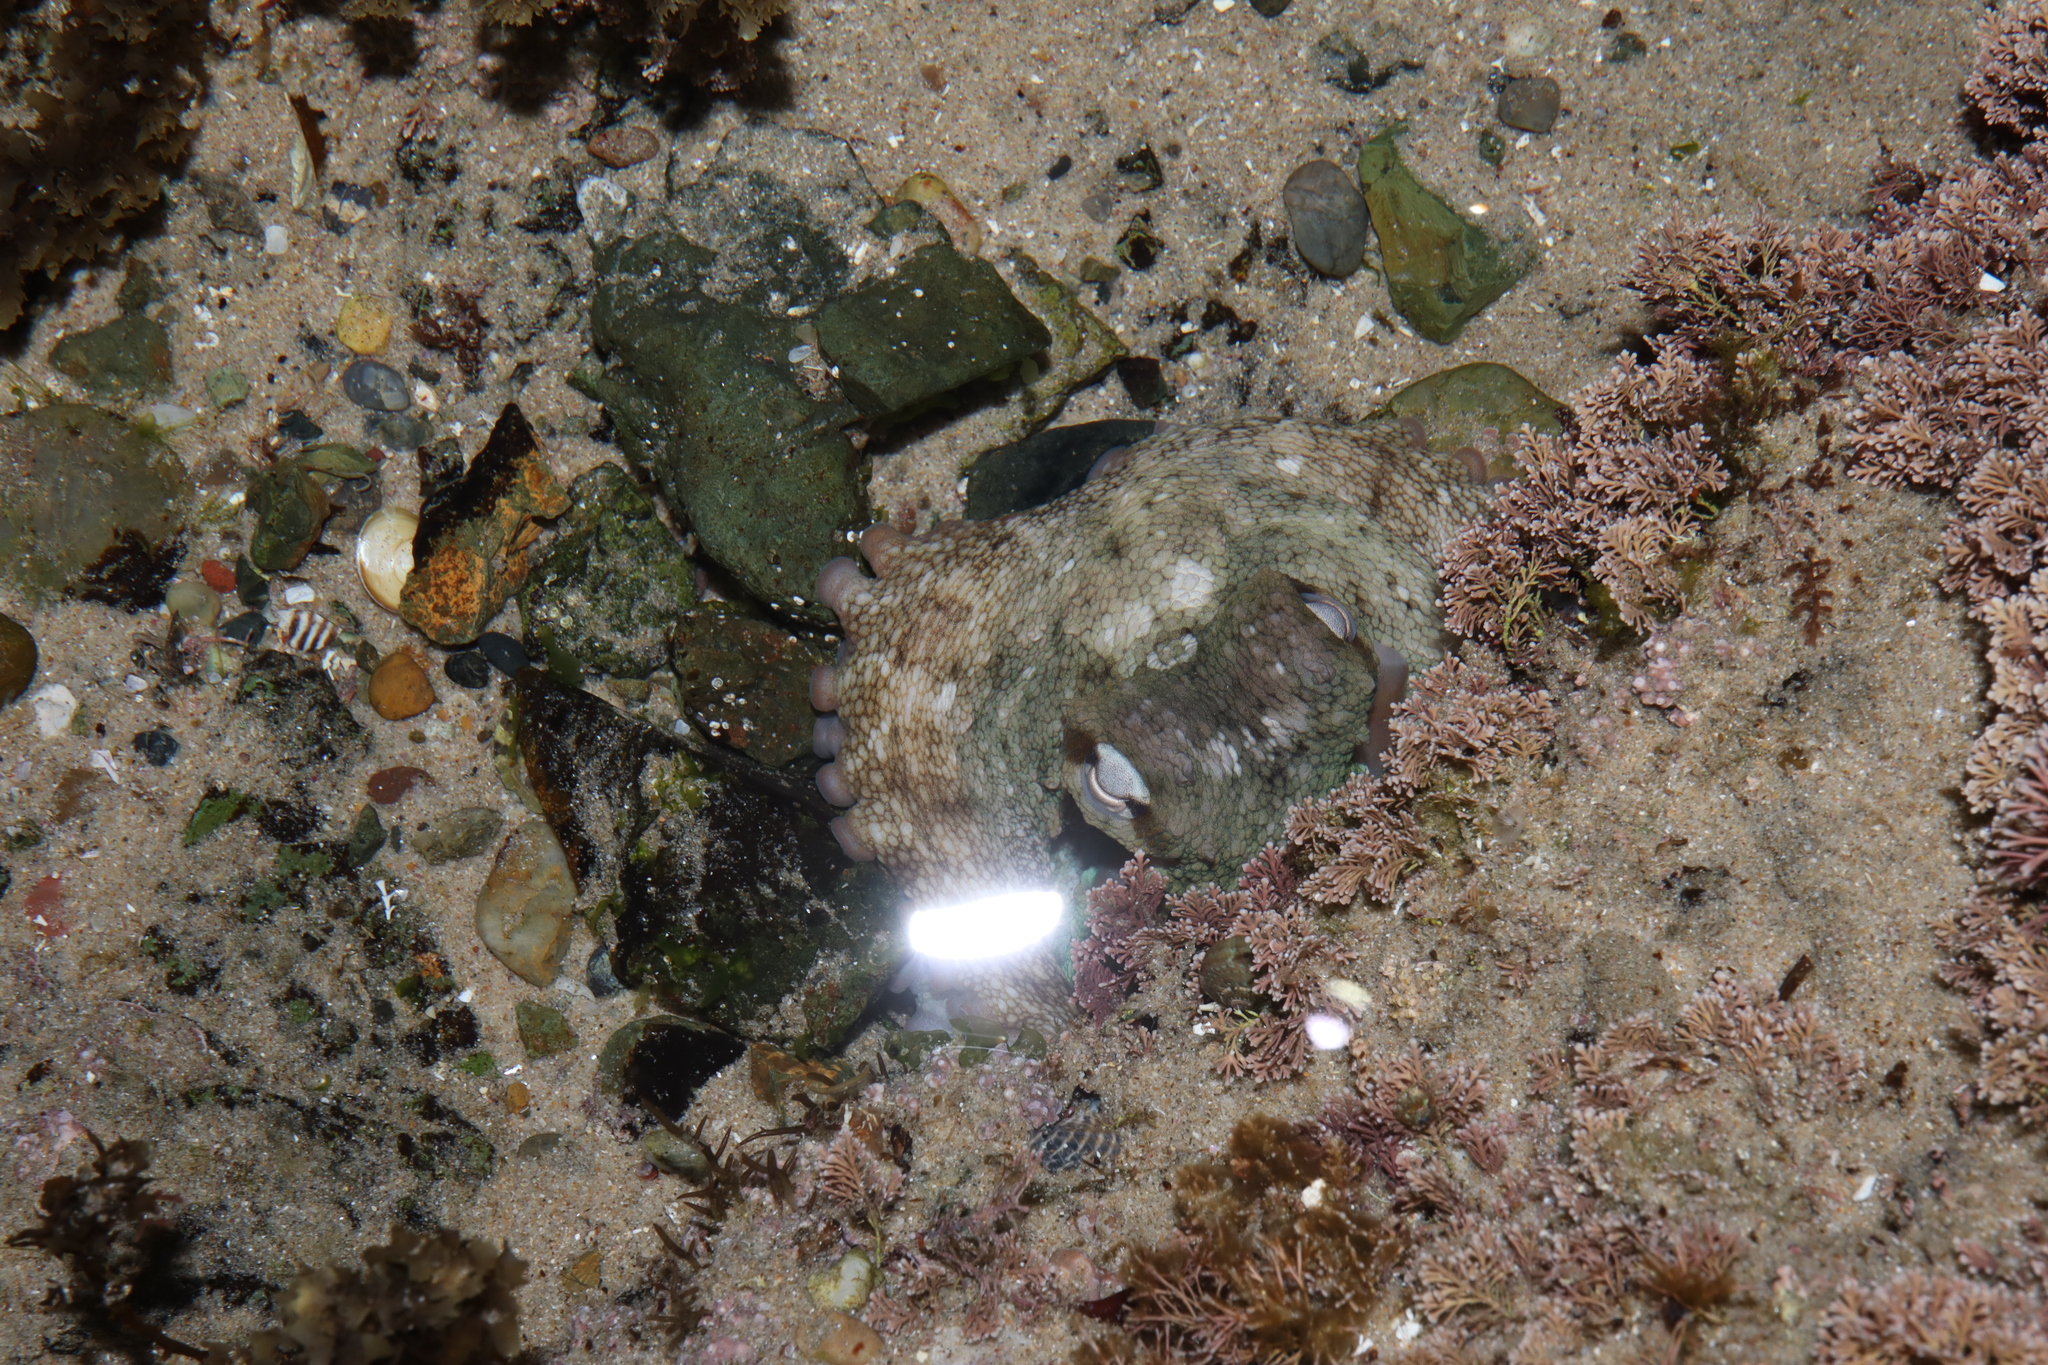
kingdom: Animalia
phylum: Mollusca
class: Cephalopoda
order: Octopoda
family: Octopodidae
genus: Octopus
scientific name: Octopus tetricus
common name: Sydney octopus
